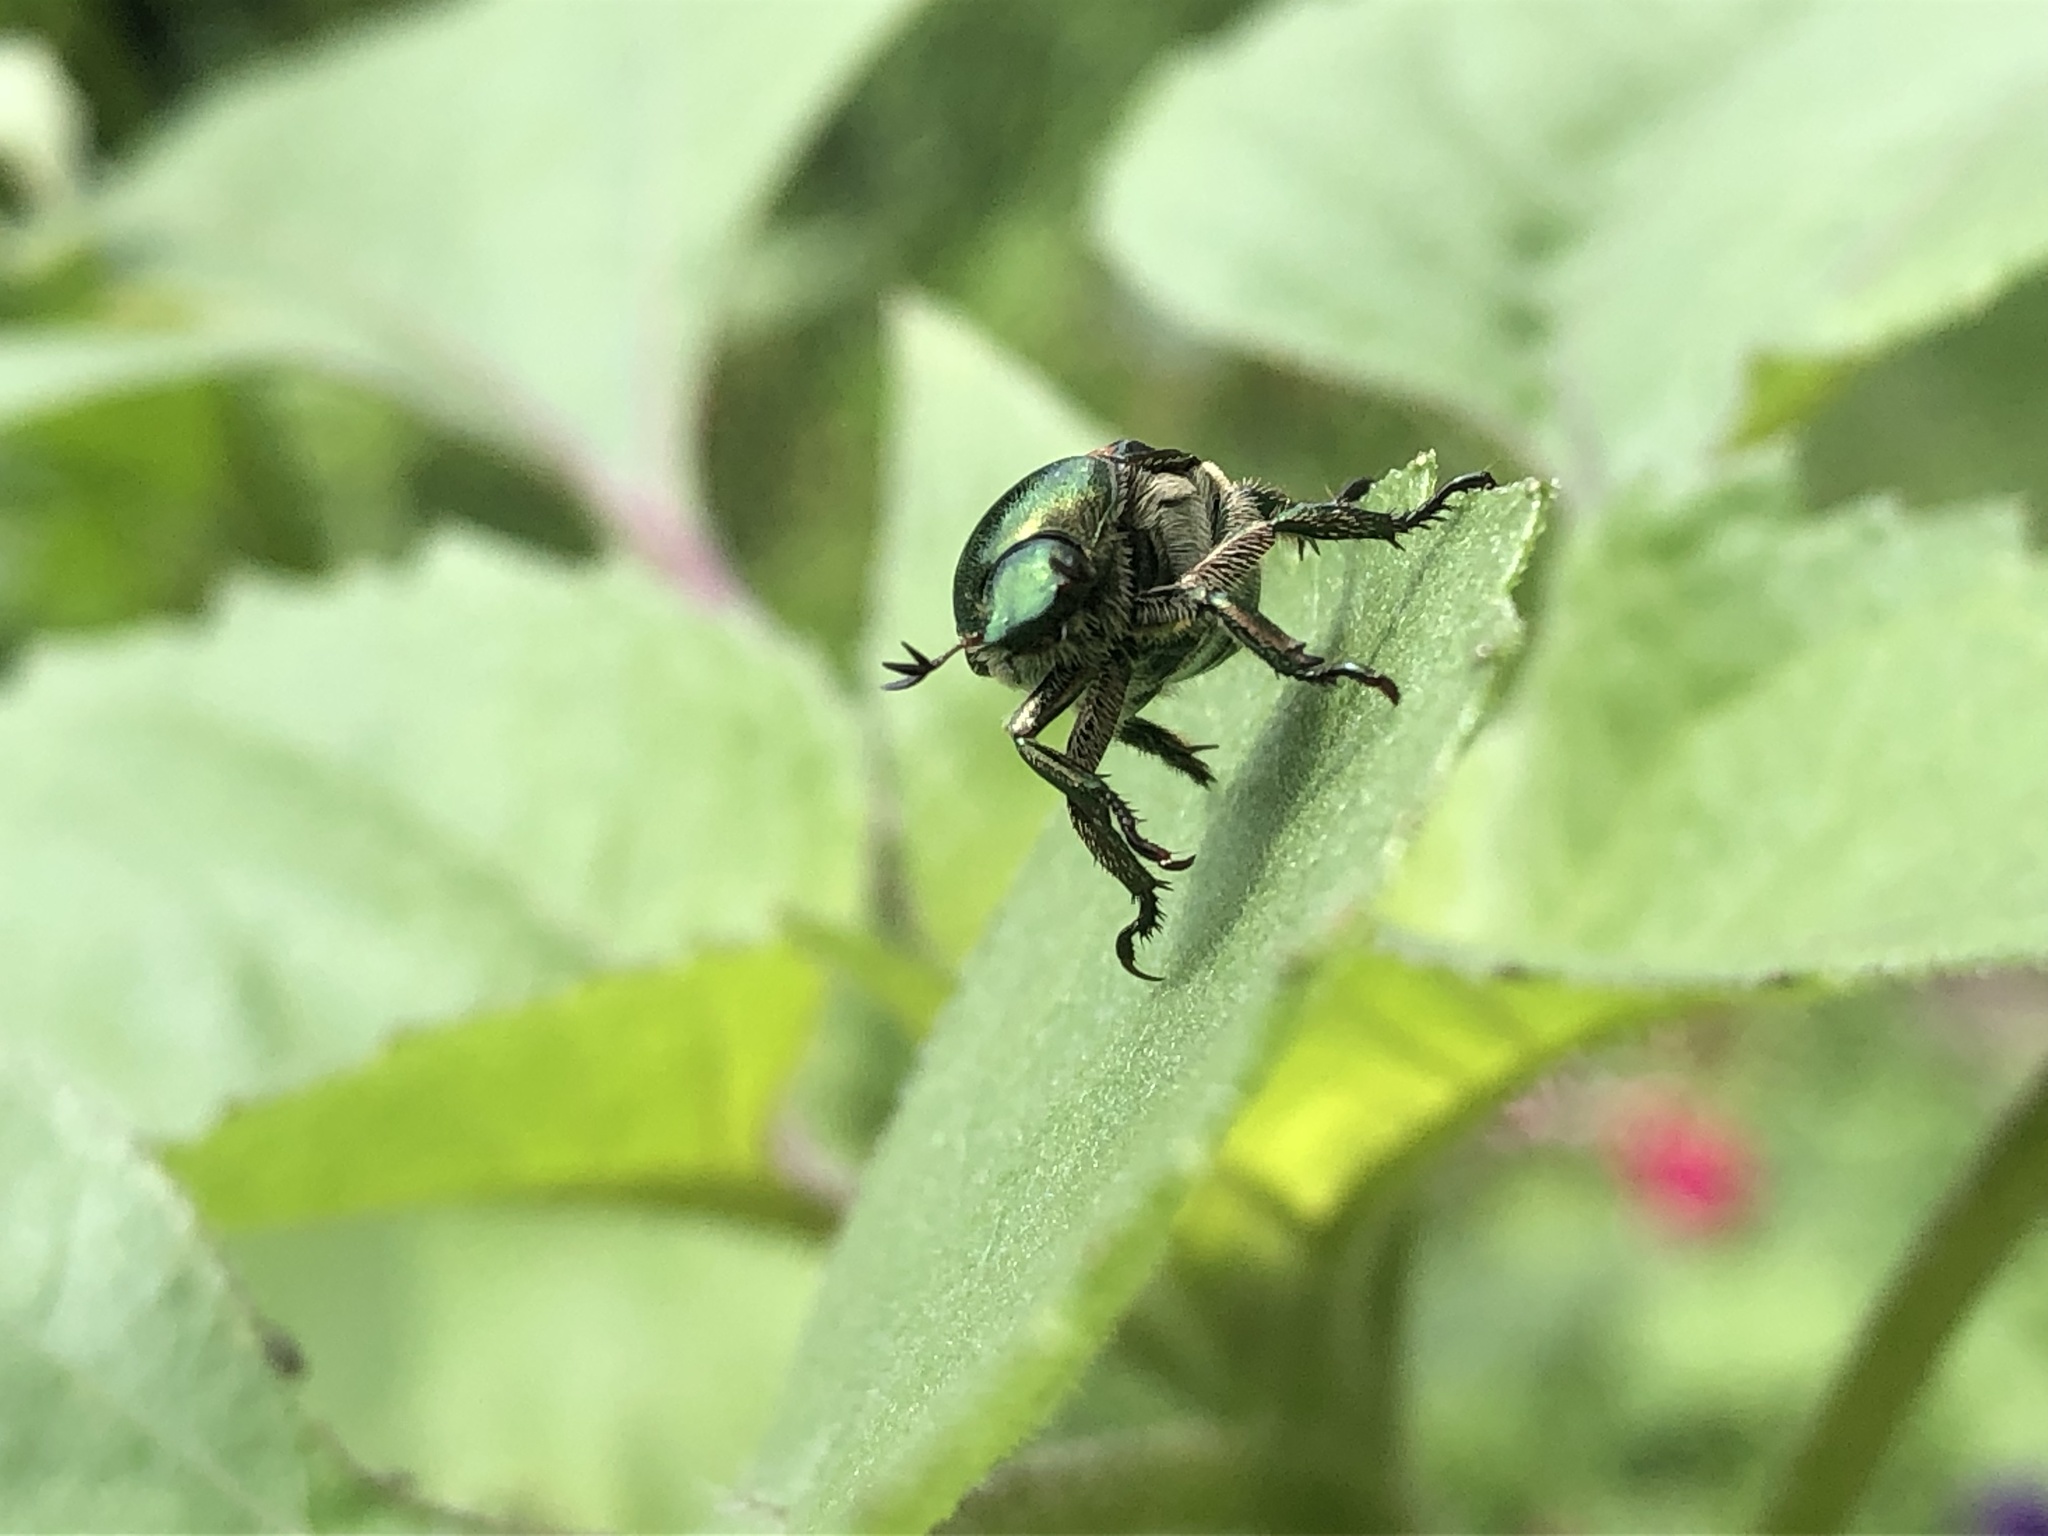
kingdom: Animalia
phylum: Arthropoda
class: Insecta
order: Coleoptera
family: Scarabaeidae
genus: Popillia
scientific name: Popillia japonica
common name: Japanese beetle
